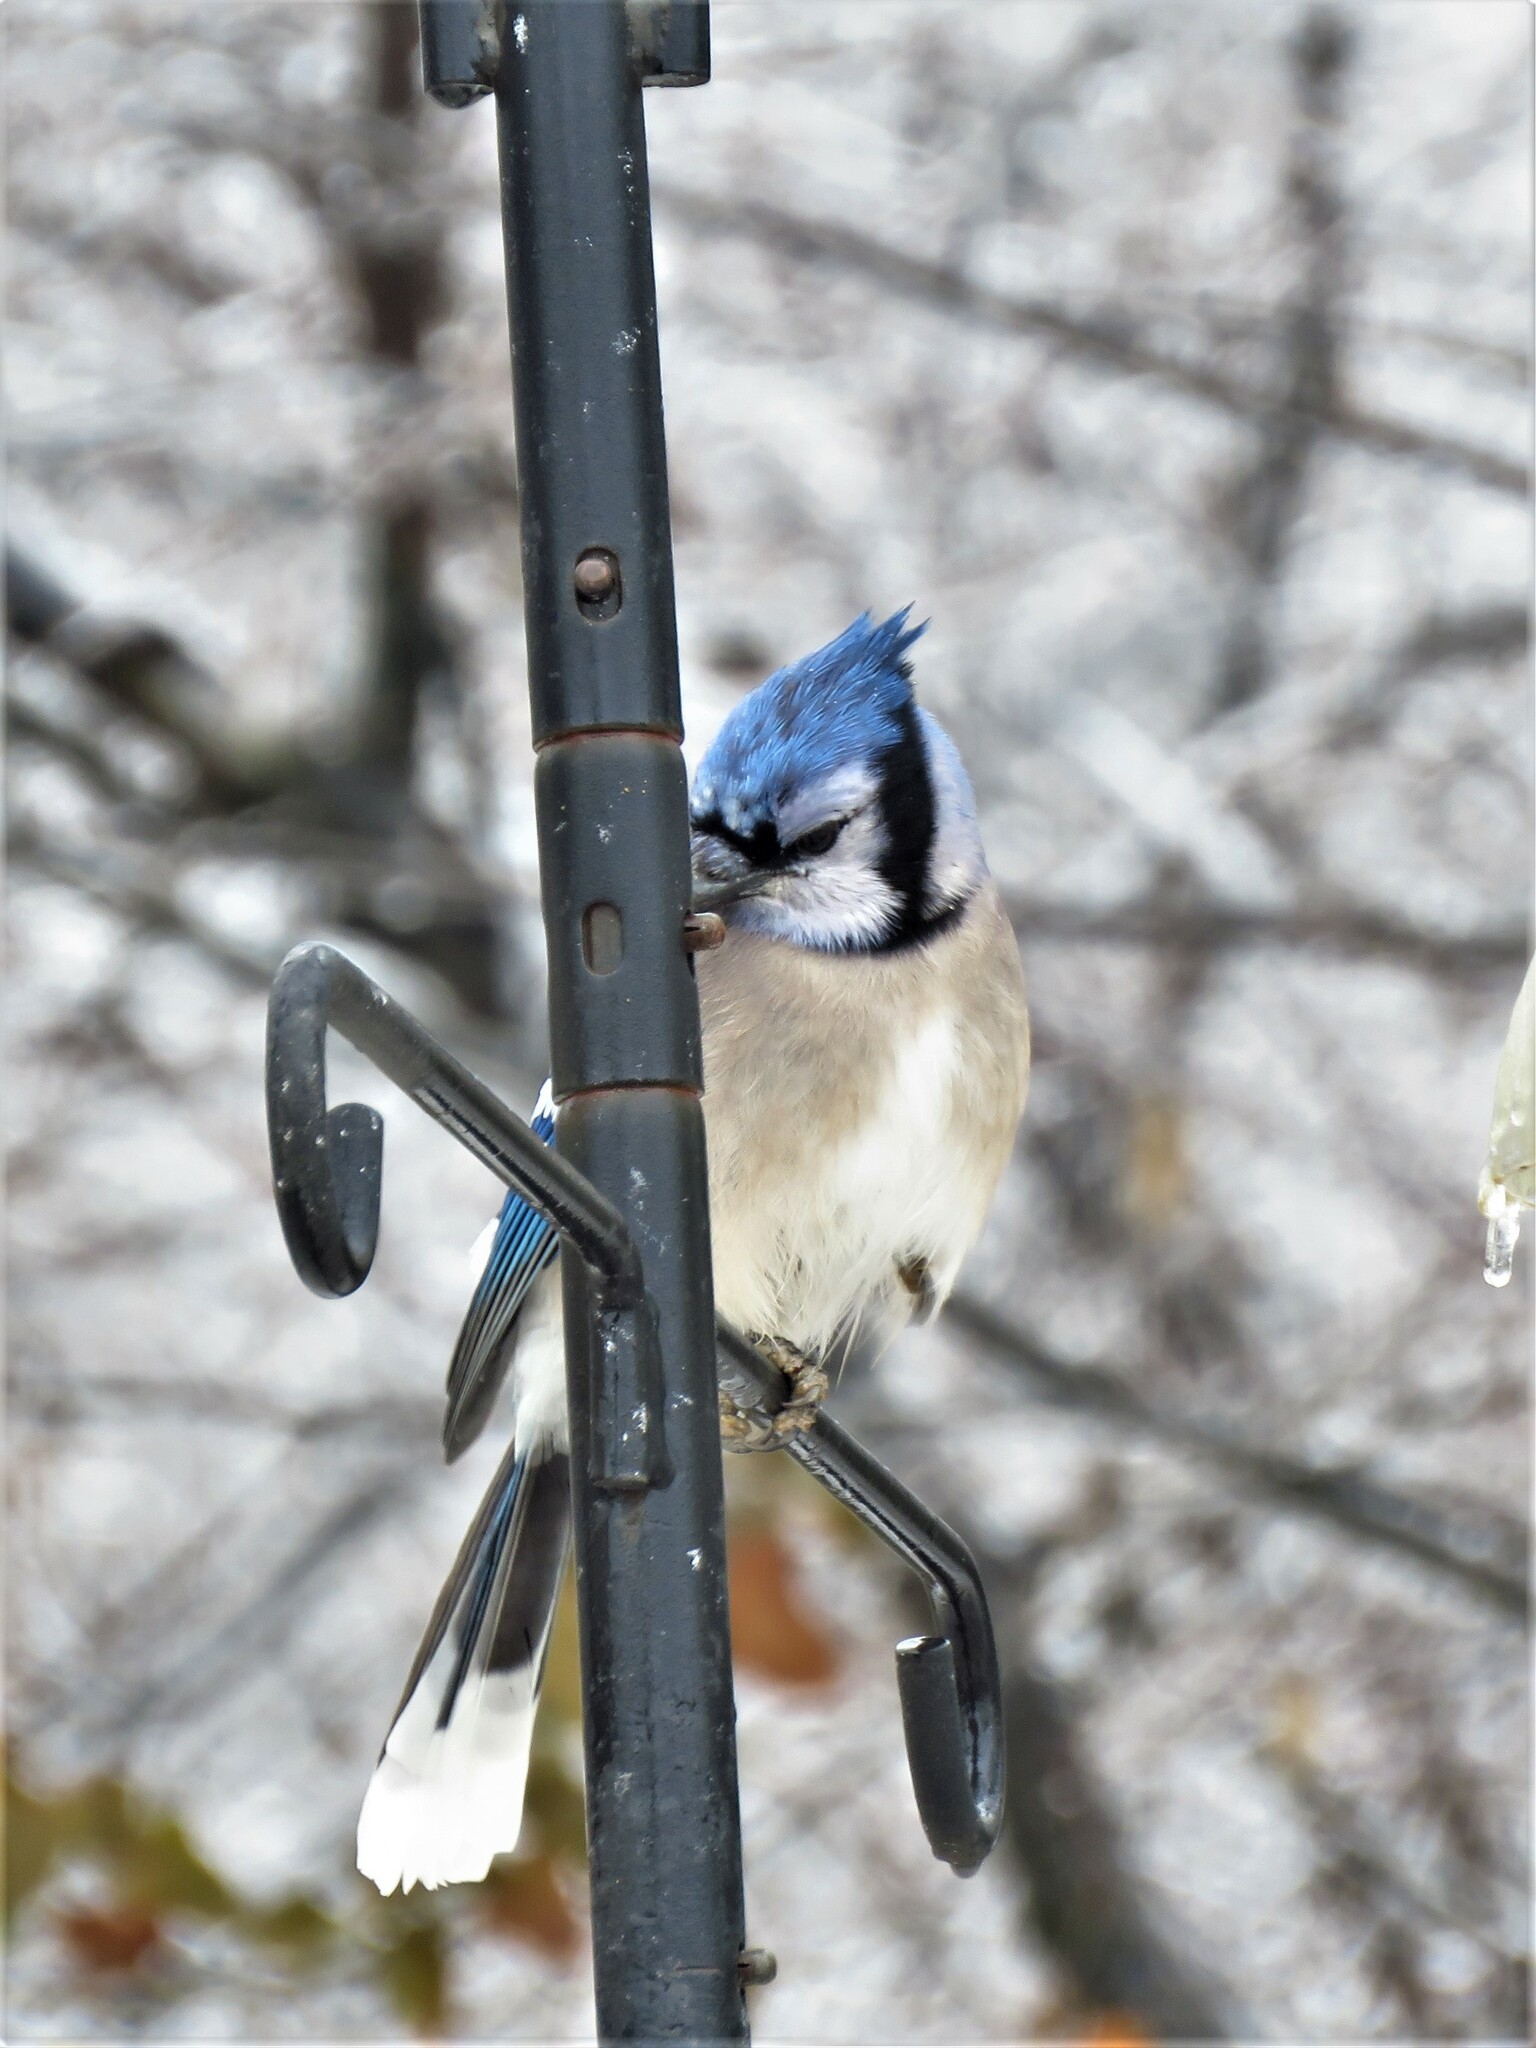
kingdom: Animalia
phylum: Chordata
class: Aves
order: Passeriformes
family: Corvidae
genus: Cyanocitta
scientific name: Cyanocitta cristata
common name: Blue jay
